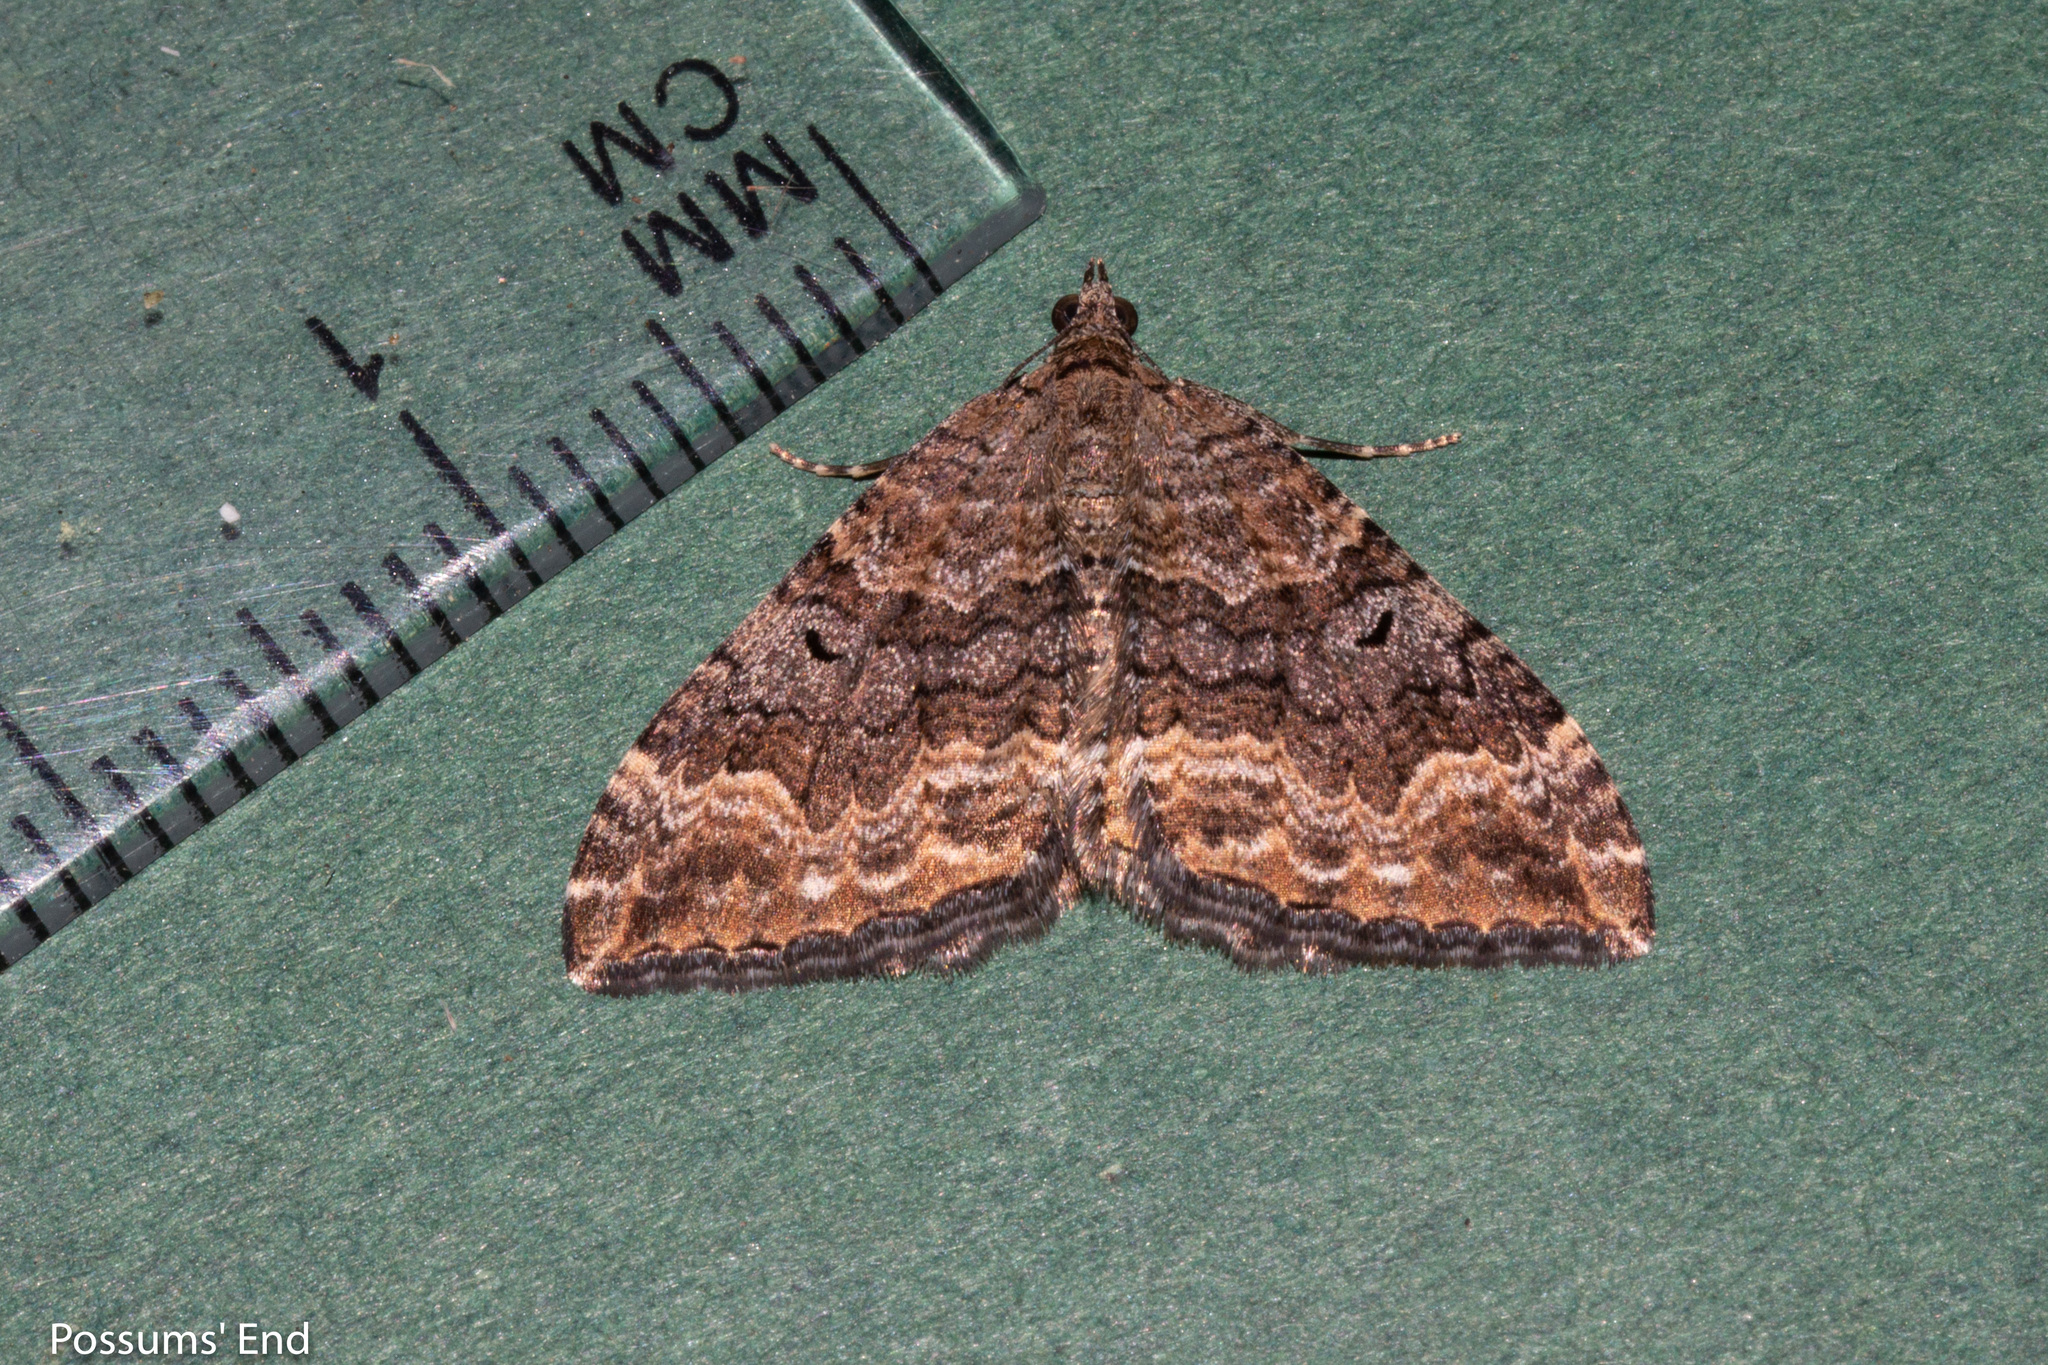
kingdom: Animalia
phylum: Arthropoda
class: Insecta
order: Lepidoptera
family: Geometridae
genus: Hydriomena
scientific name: Hydriomena deltoidata
